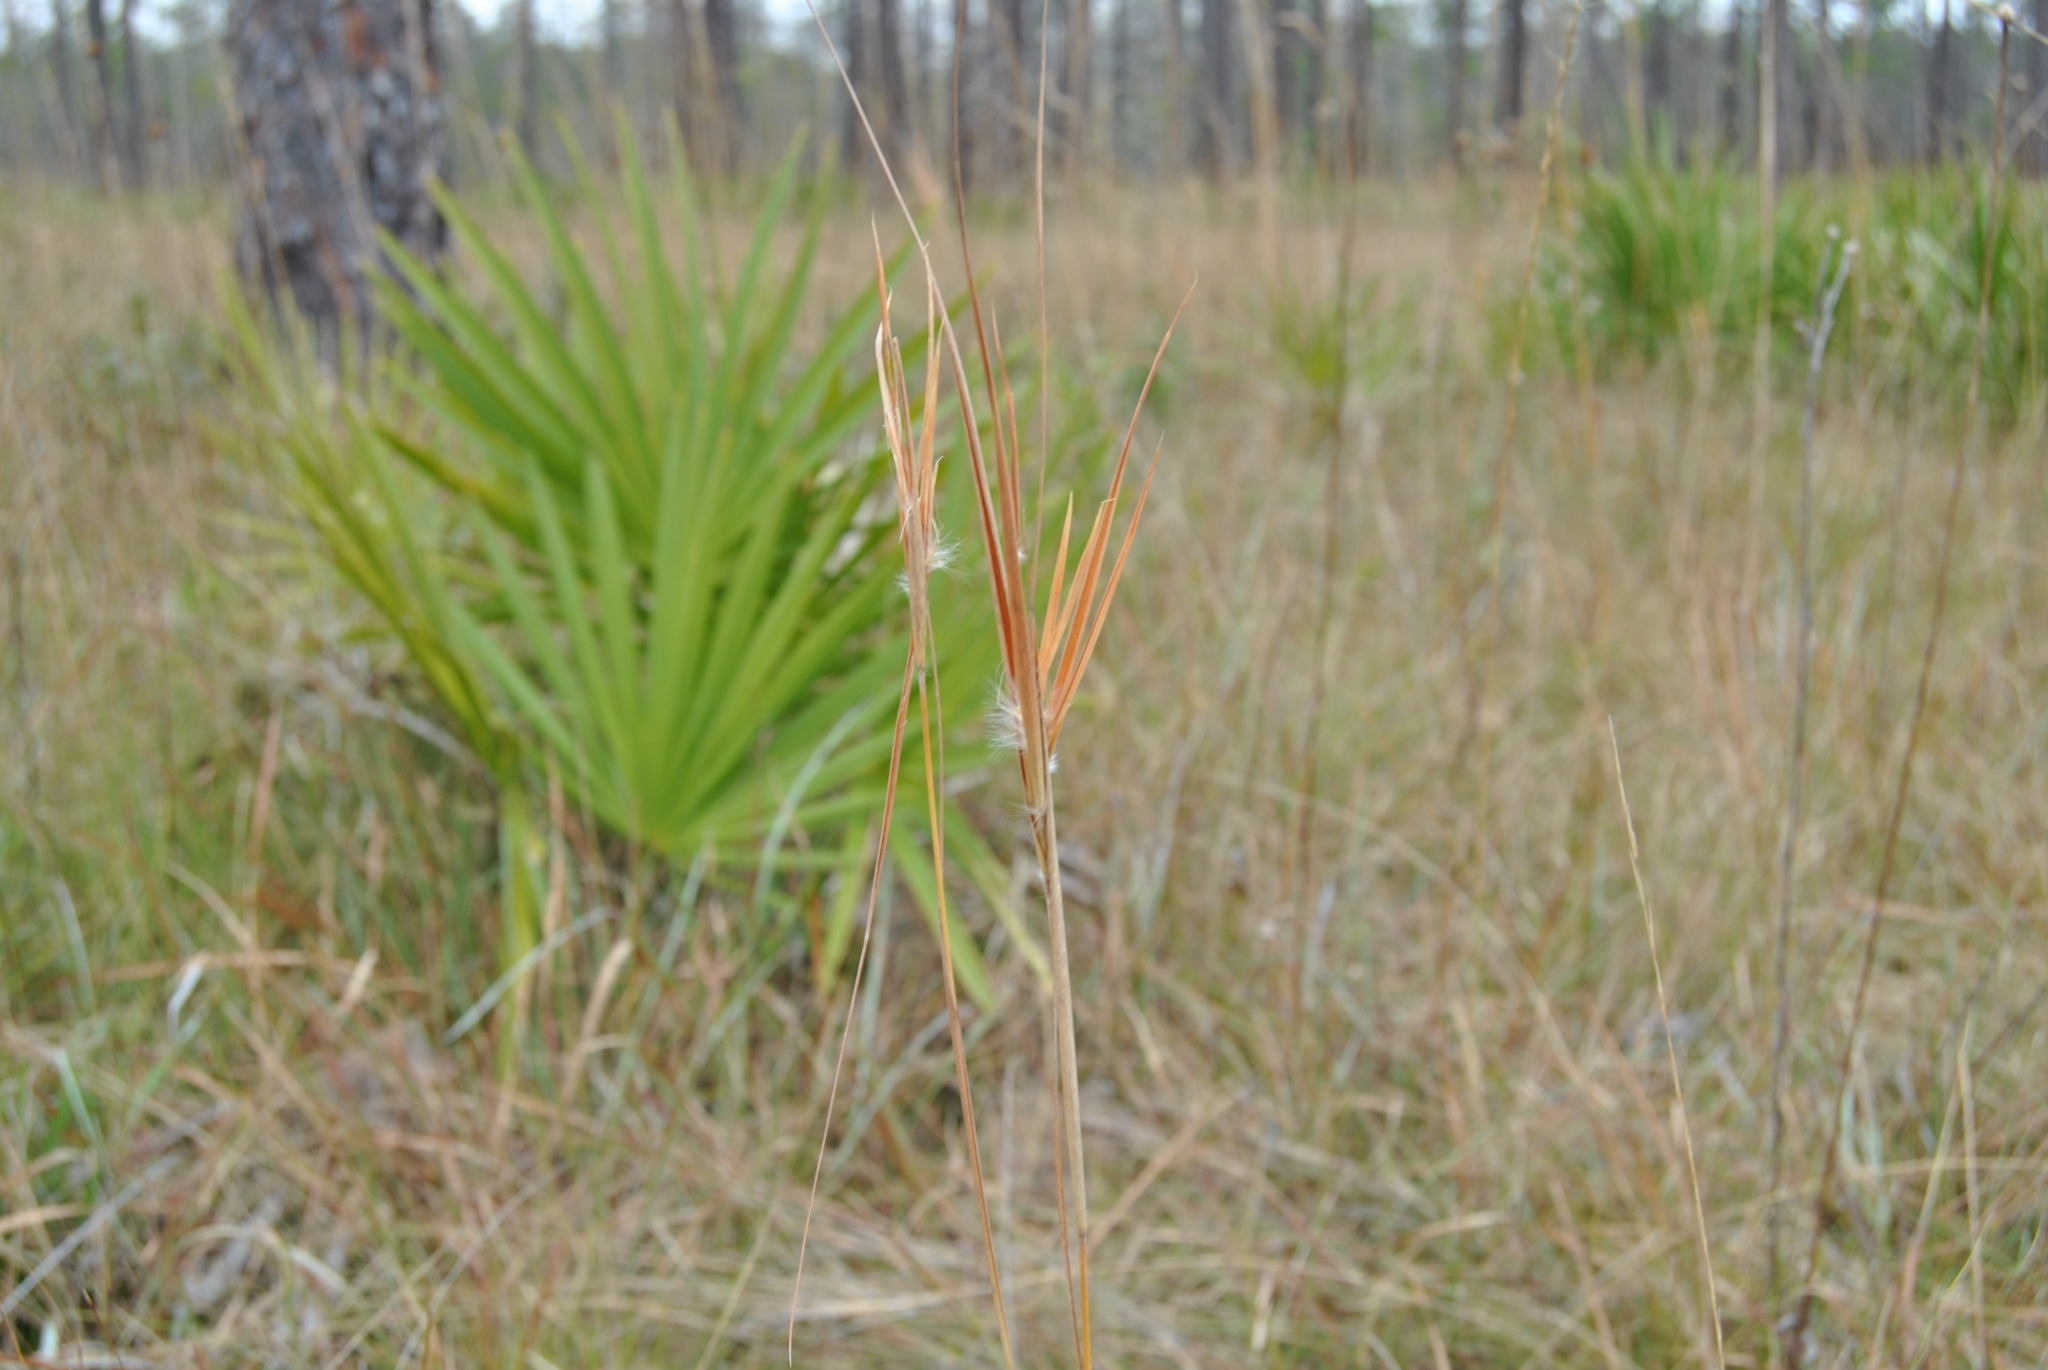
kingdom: Plantae
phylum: Tracheophyta
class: Liliopsida
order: Poales
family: Poaceae
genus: Andropogon
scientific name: Andropogon gyrans
